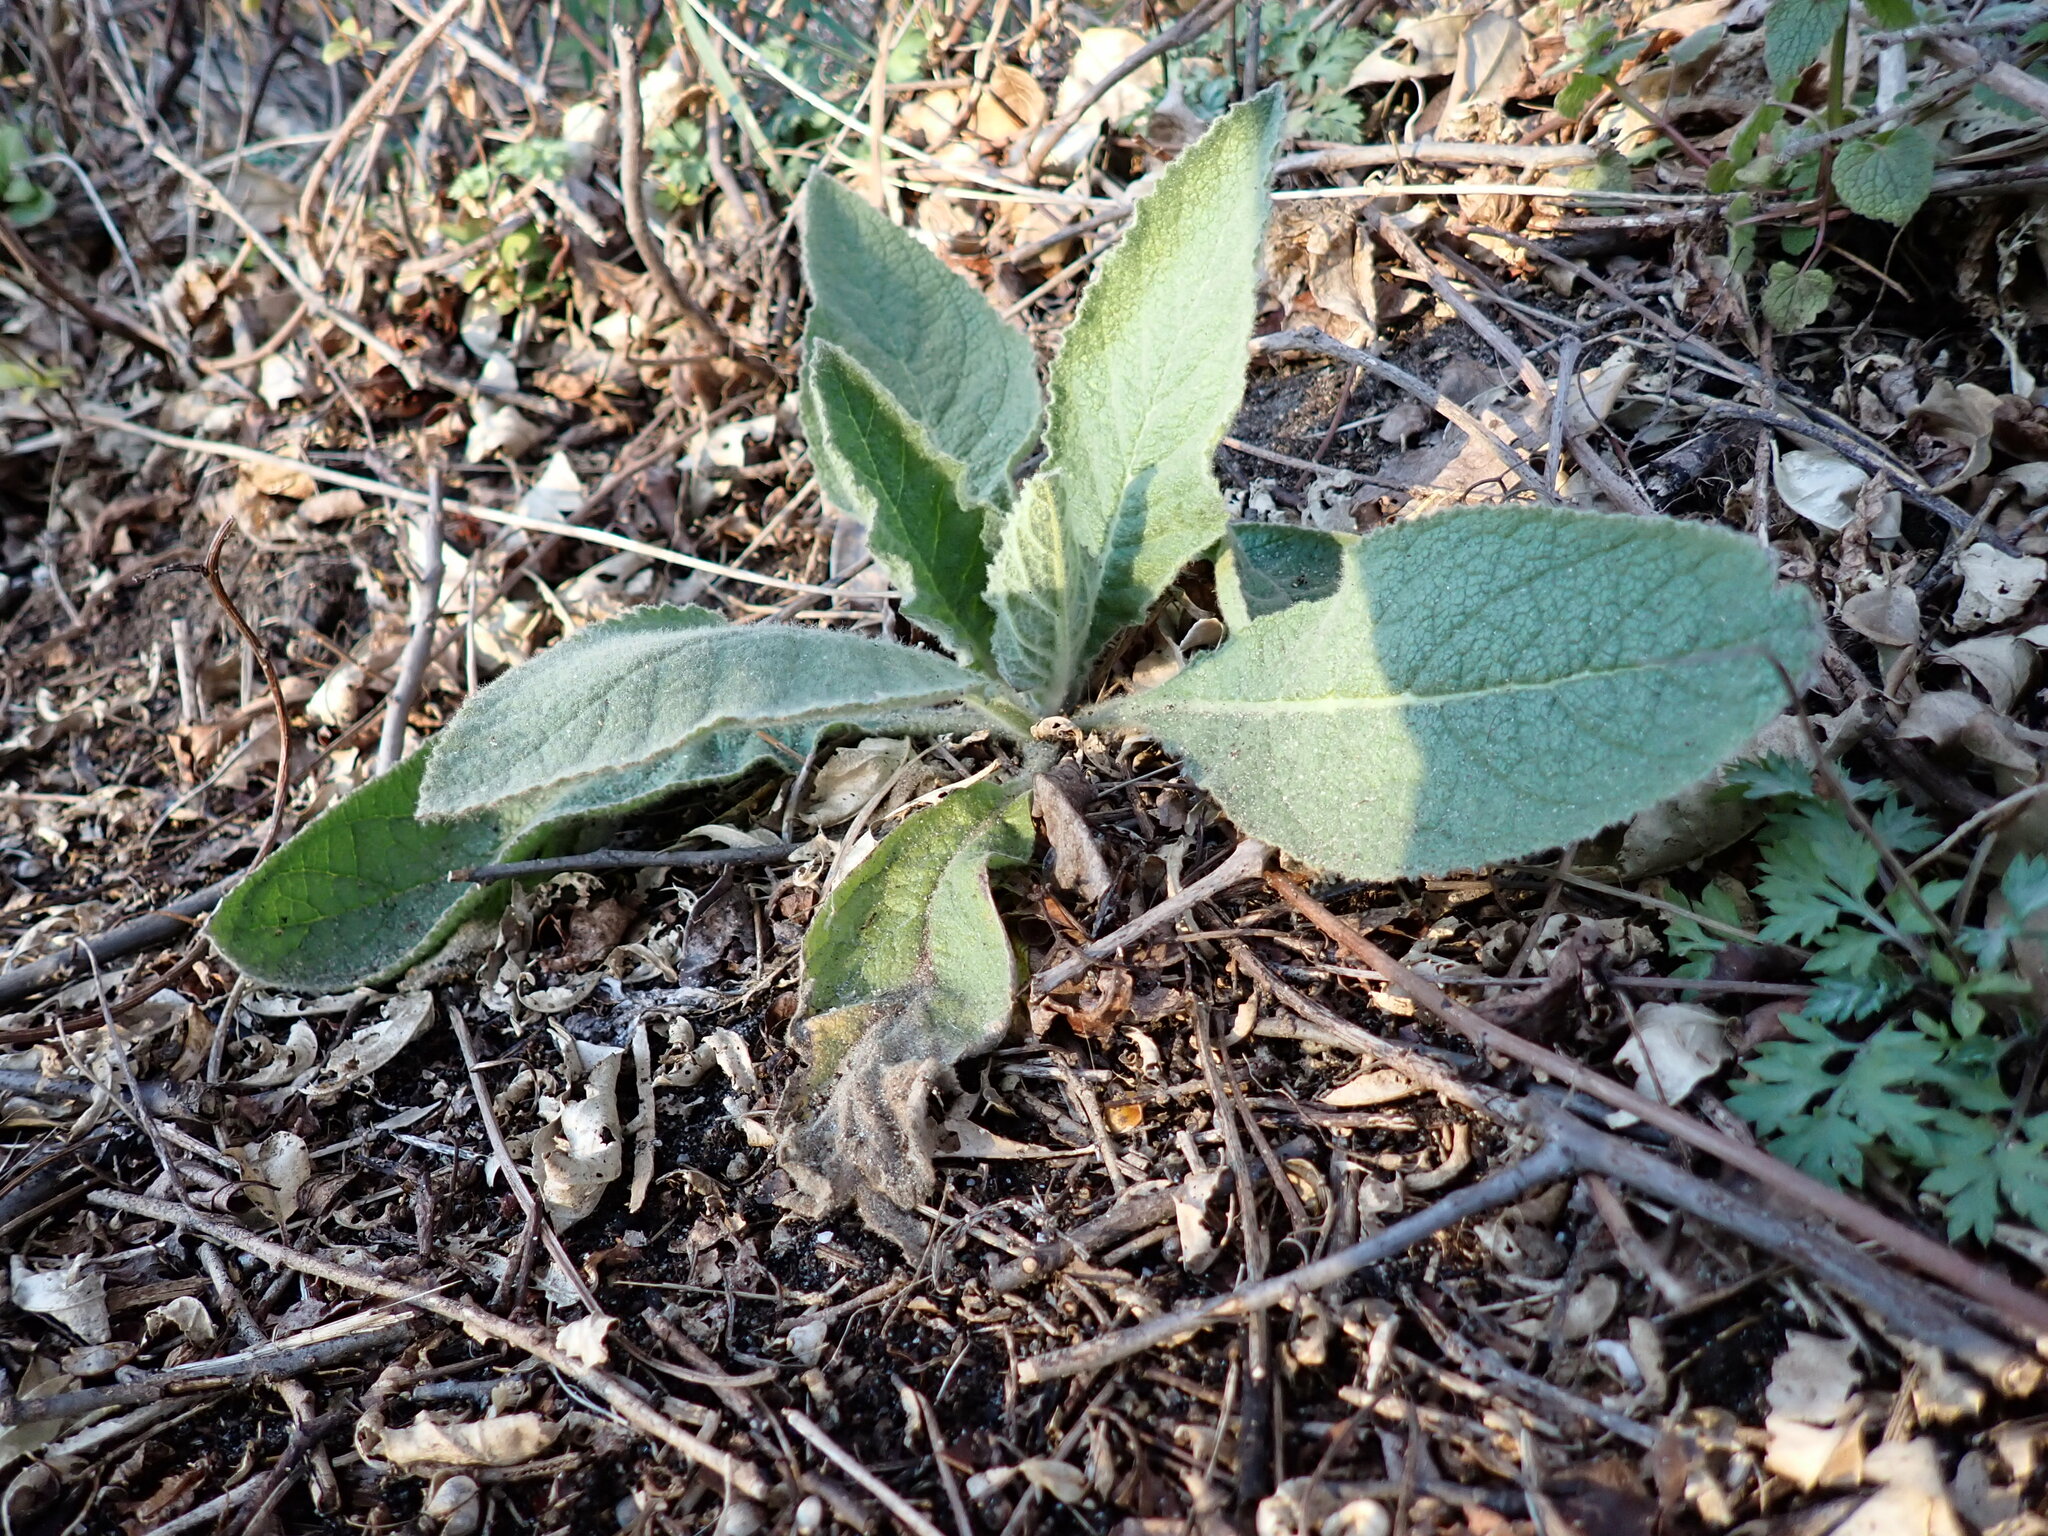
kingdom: Plantae
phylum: Tracheophyta
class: Magnoliopsida
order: Lamiales
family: Scrophulariaceae
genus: Verbascum
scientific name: Verbascum thapsus
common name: Common mullein
